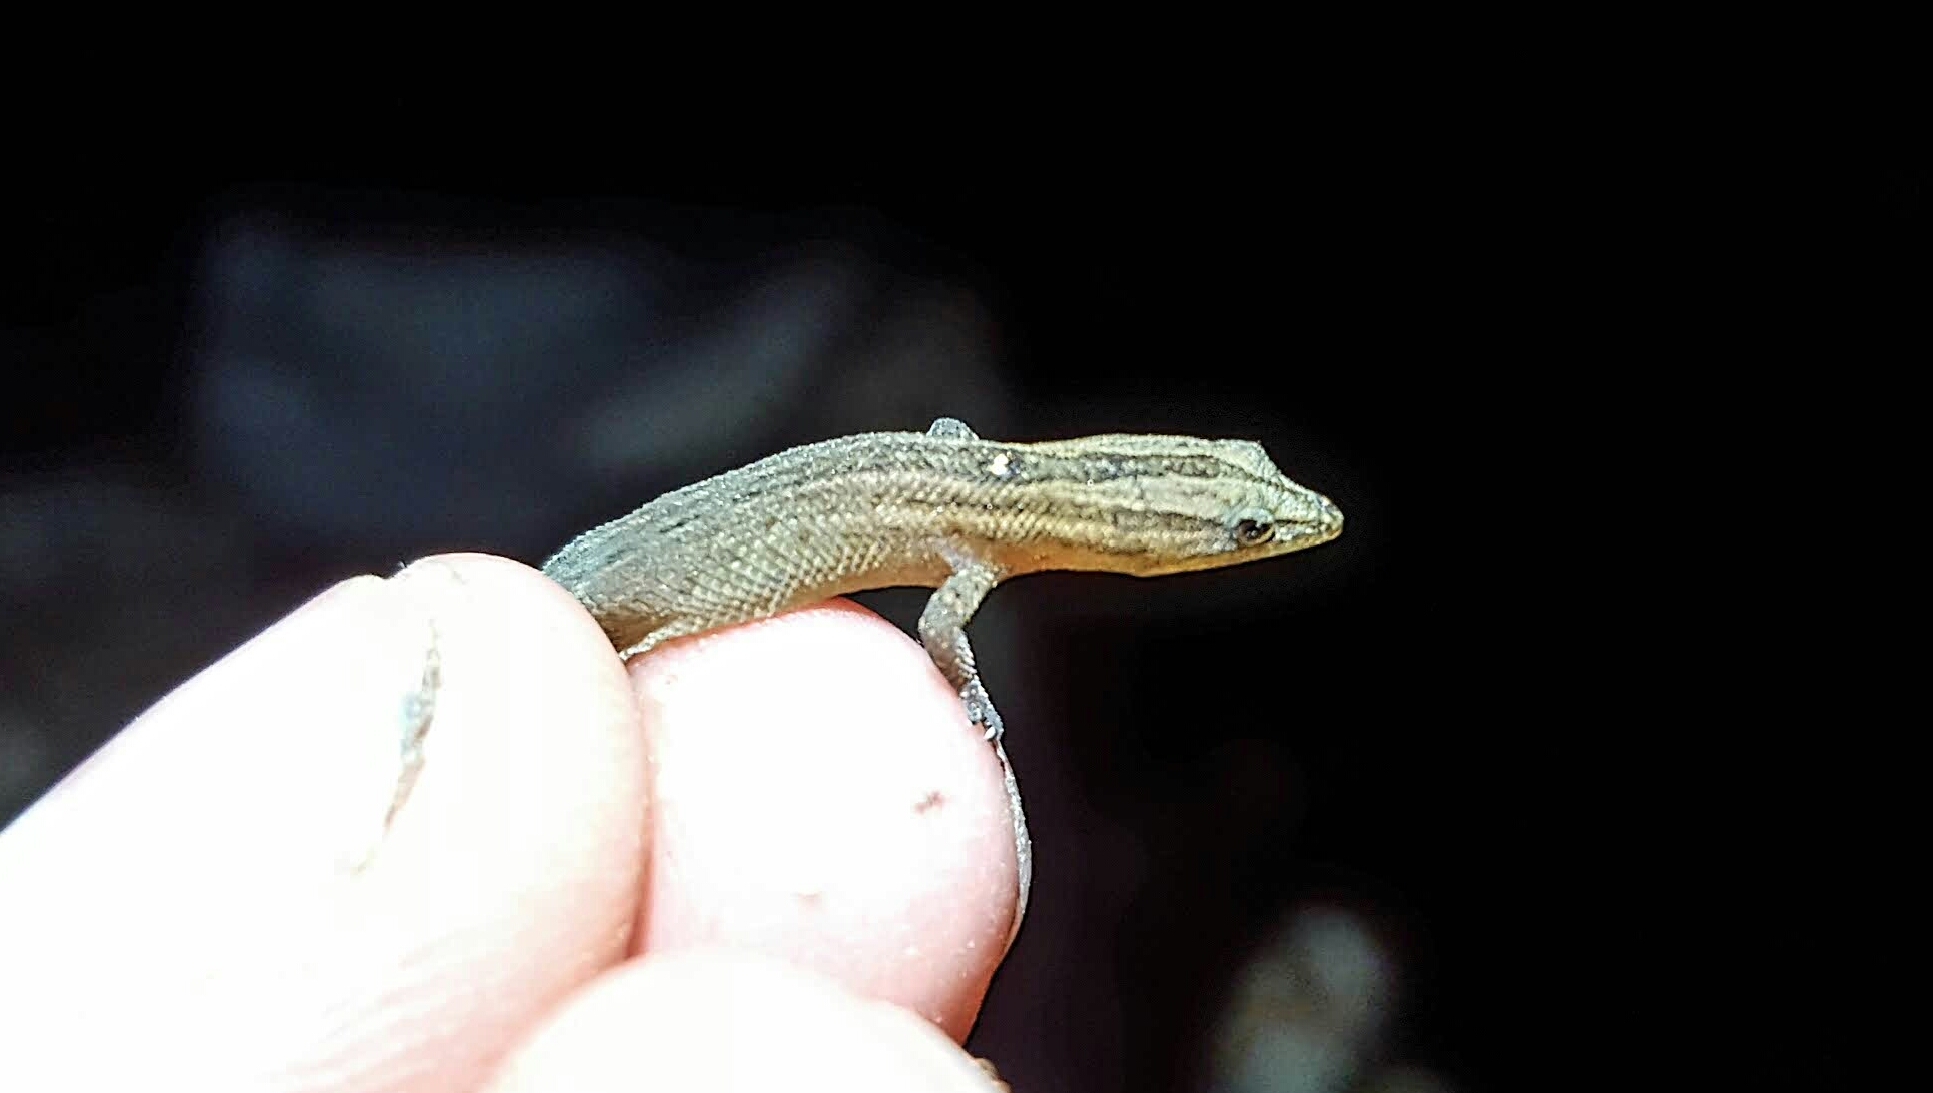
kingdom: Animalia
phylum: Chordata
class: Squamata
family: Sphaerodactylidae
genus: Sphaerodactylus
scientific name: Sphaerodactylus notatus
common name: Brown-speckled sphaero
